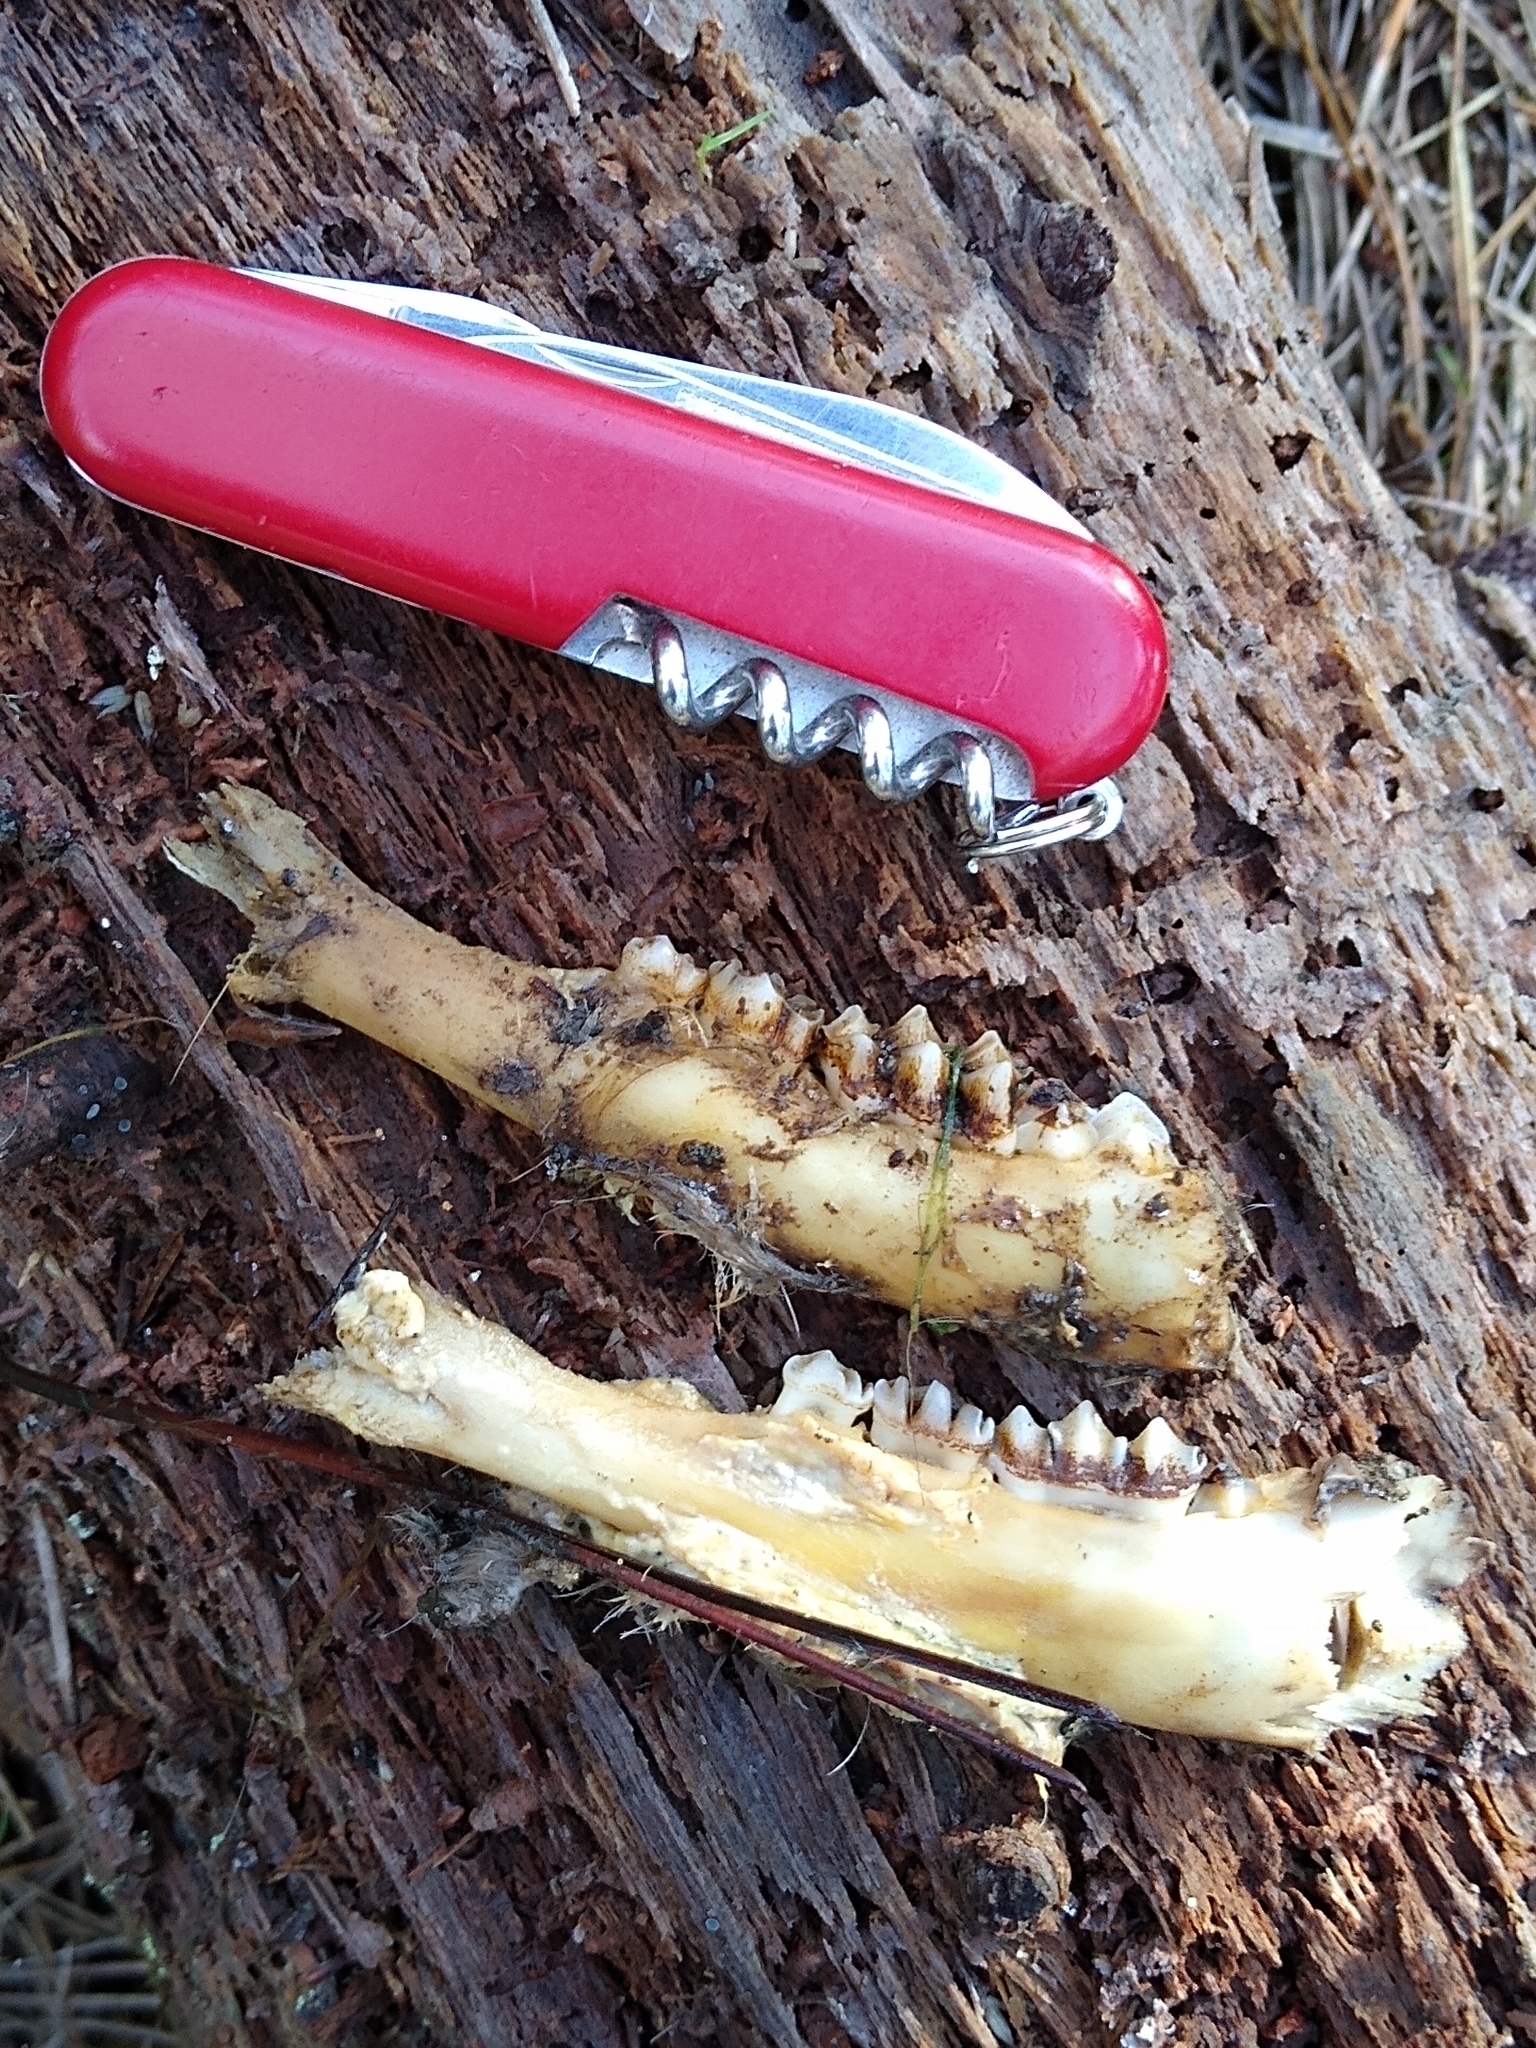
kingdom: Animalia
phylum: Chordata
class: Mammalia
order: Artiodactyla
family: Cervidae
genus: Odocoileus
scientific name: Odocoileus hemionus
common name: Mule deer
